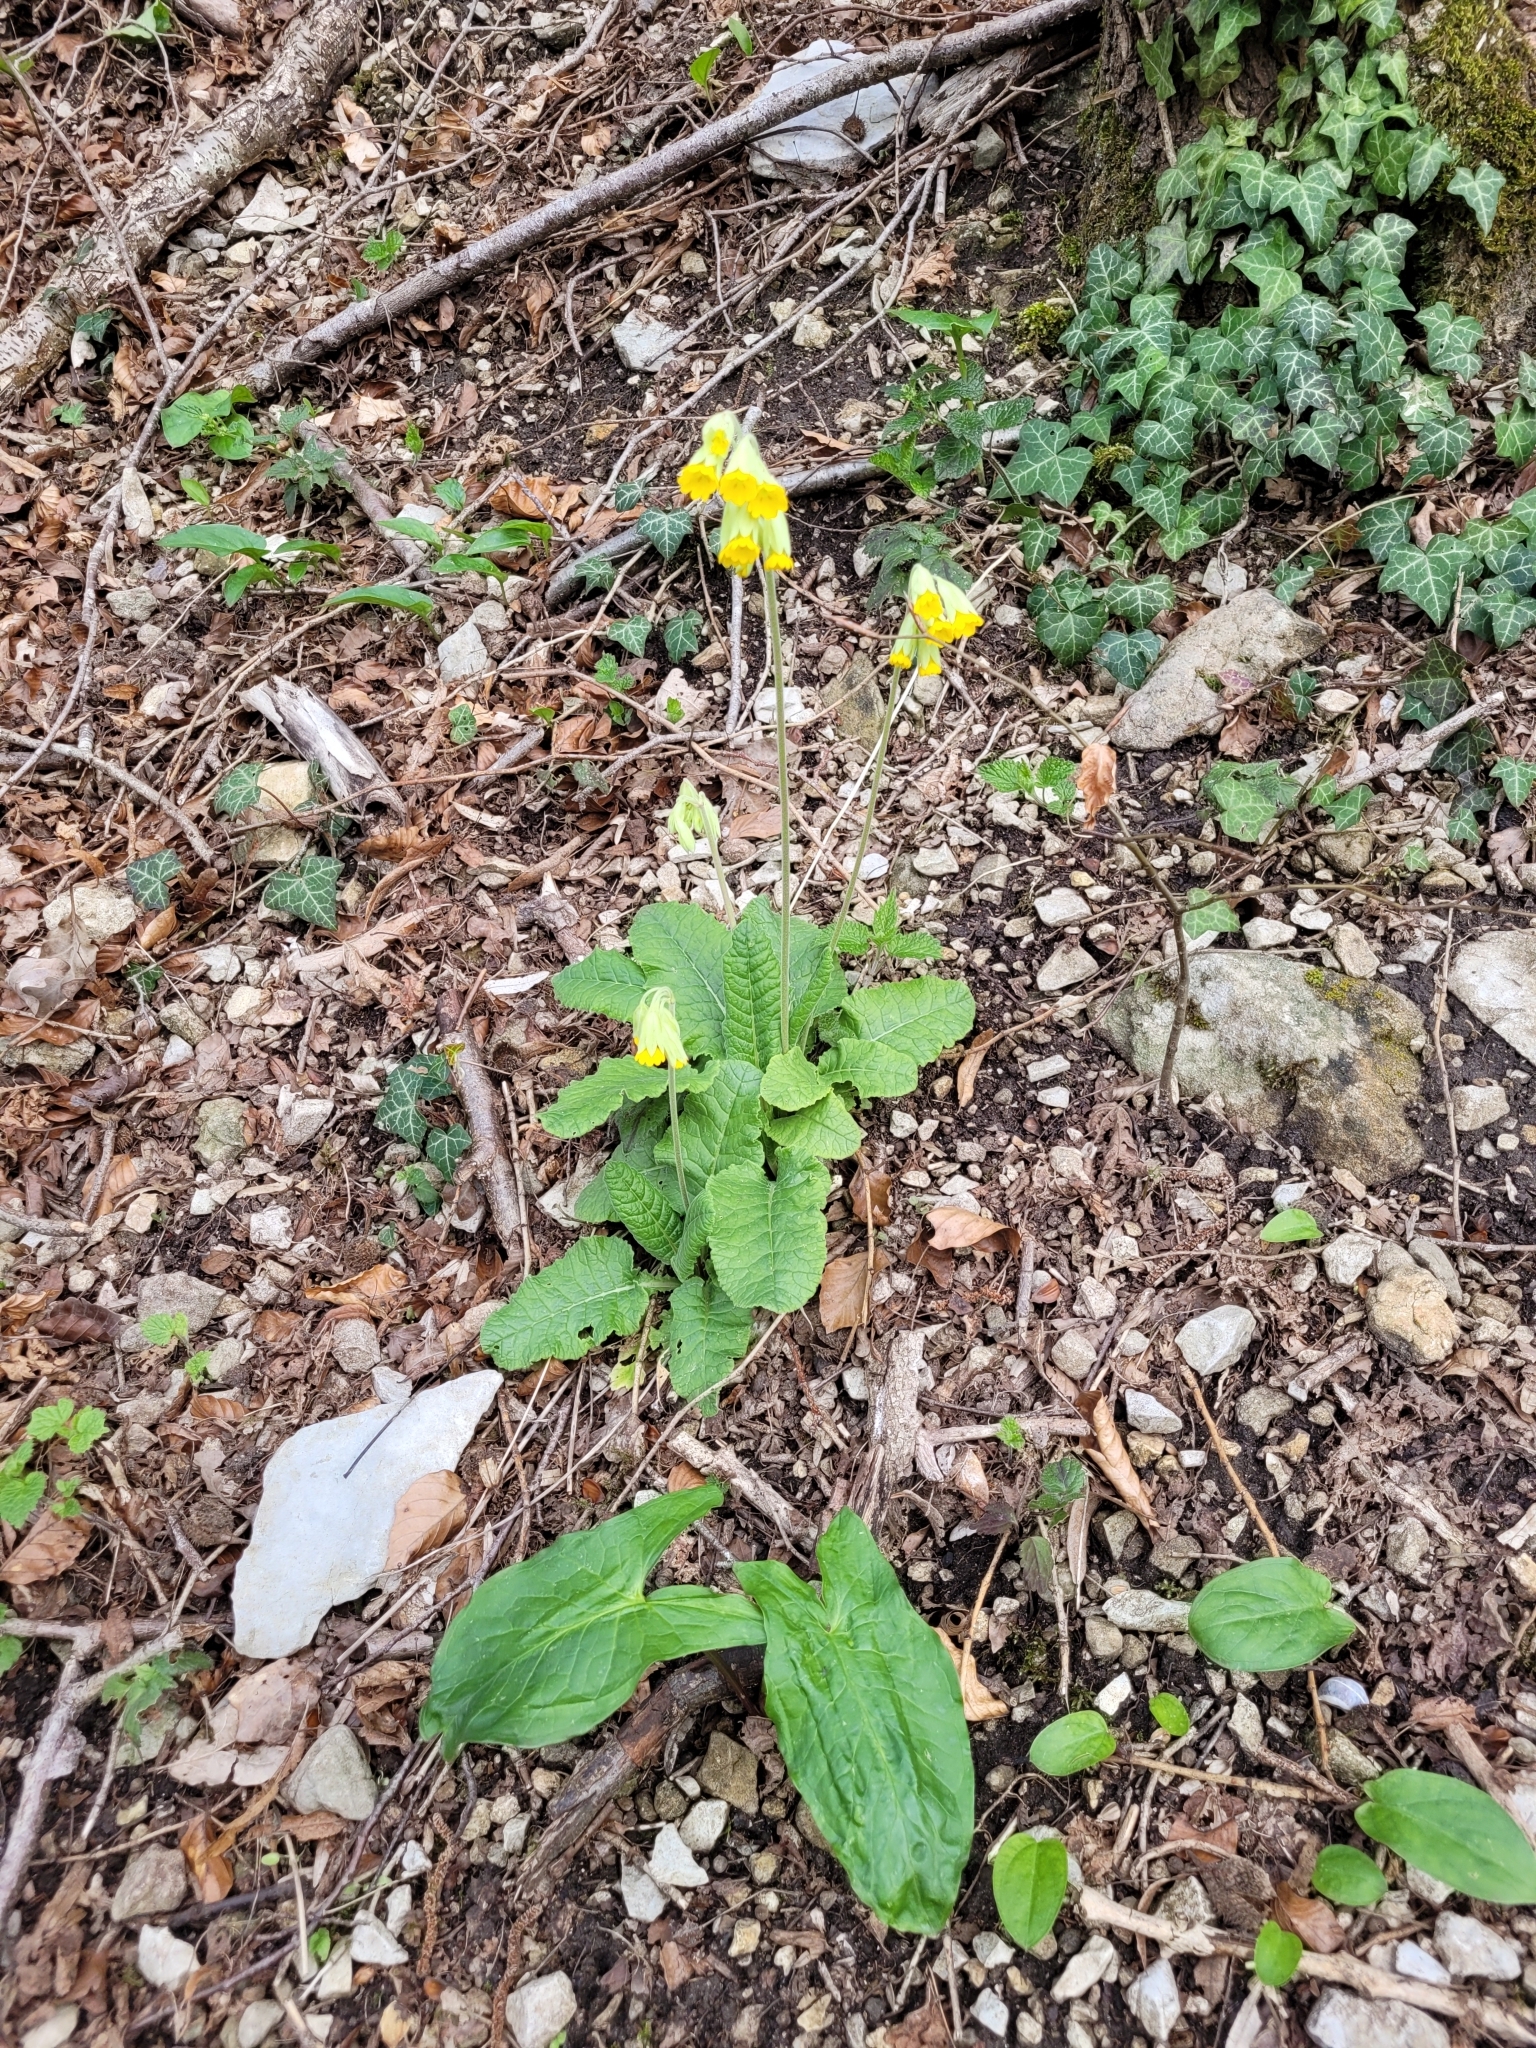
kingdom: Plantae
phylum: Tracheophyta
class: Magnoliopsida
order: Ericales
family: Primulaceae
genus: Primula
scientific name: Primula veris
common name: Cowslip
